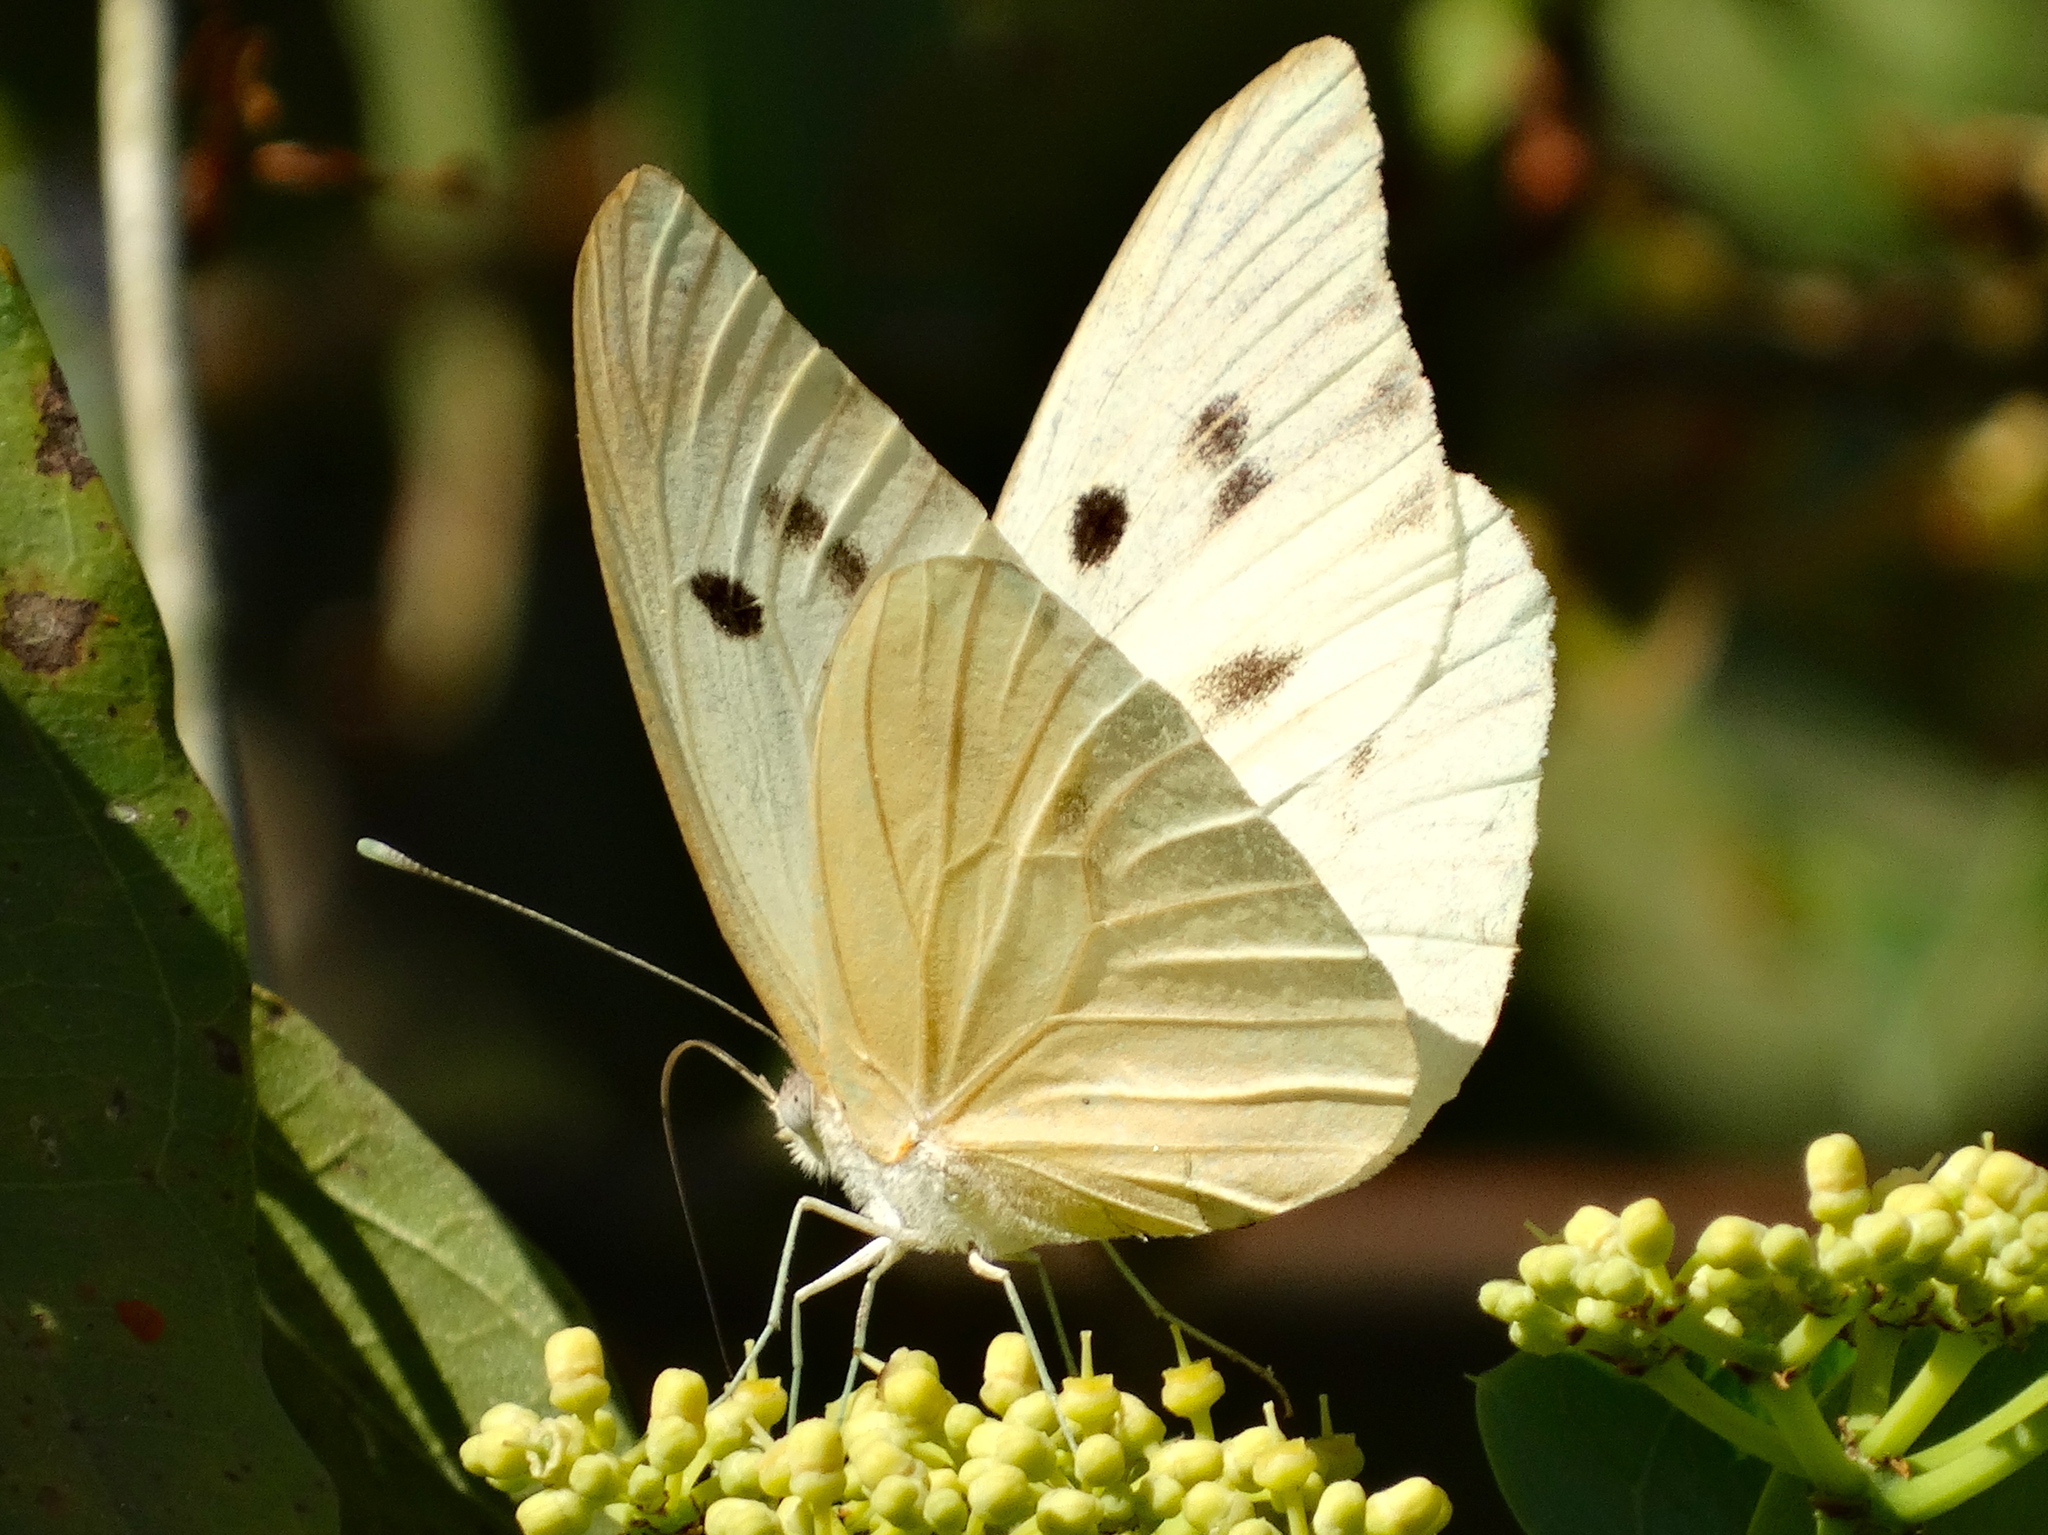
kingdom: Animalia
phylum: Arthropoda
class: Insecta
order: Lepidoptera
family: Pieridae
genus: Ganyra
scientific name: Ganyra josephina
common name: Giant white
